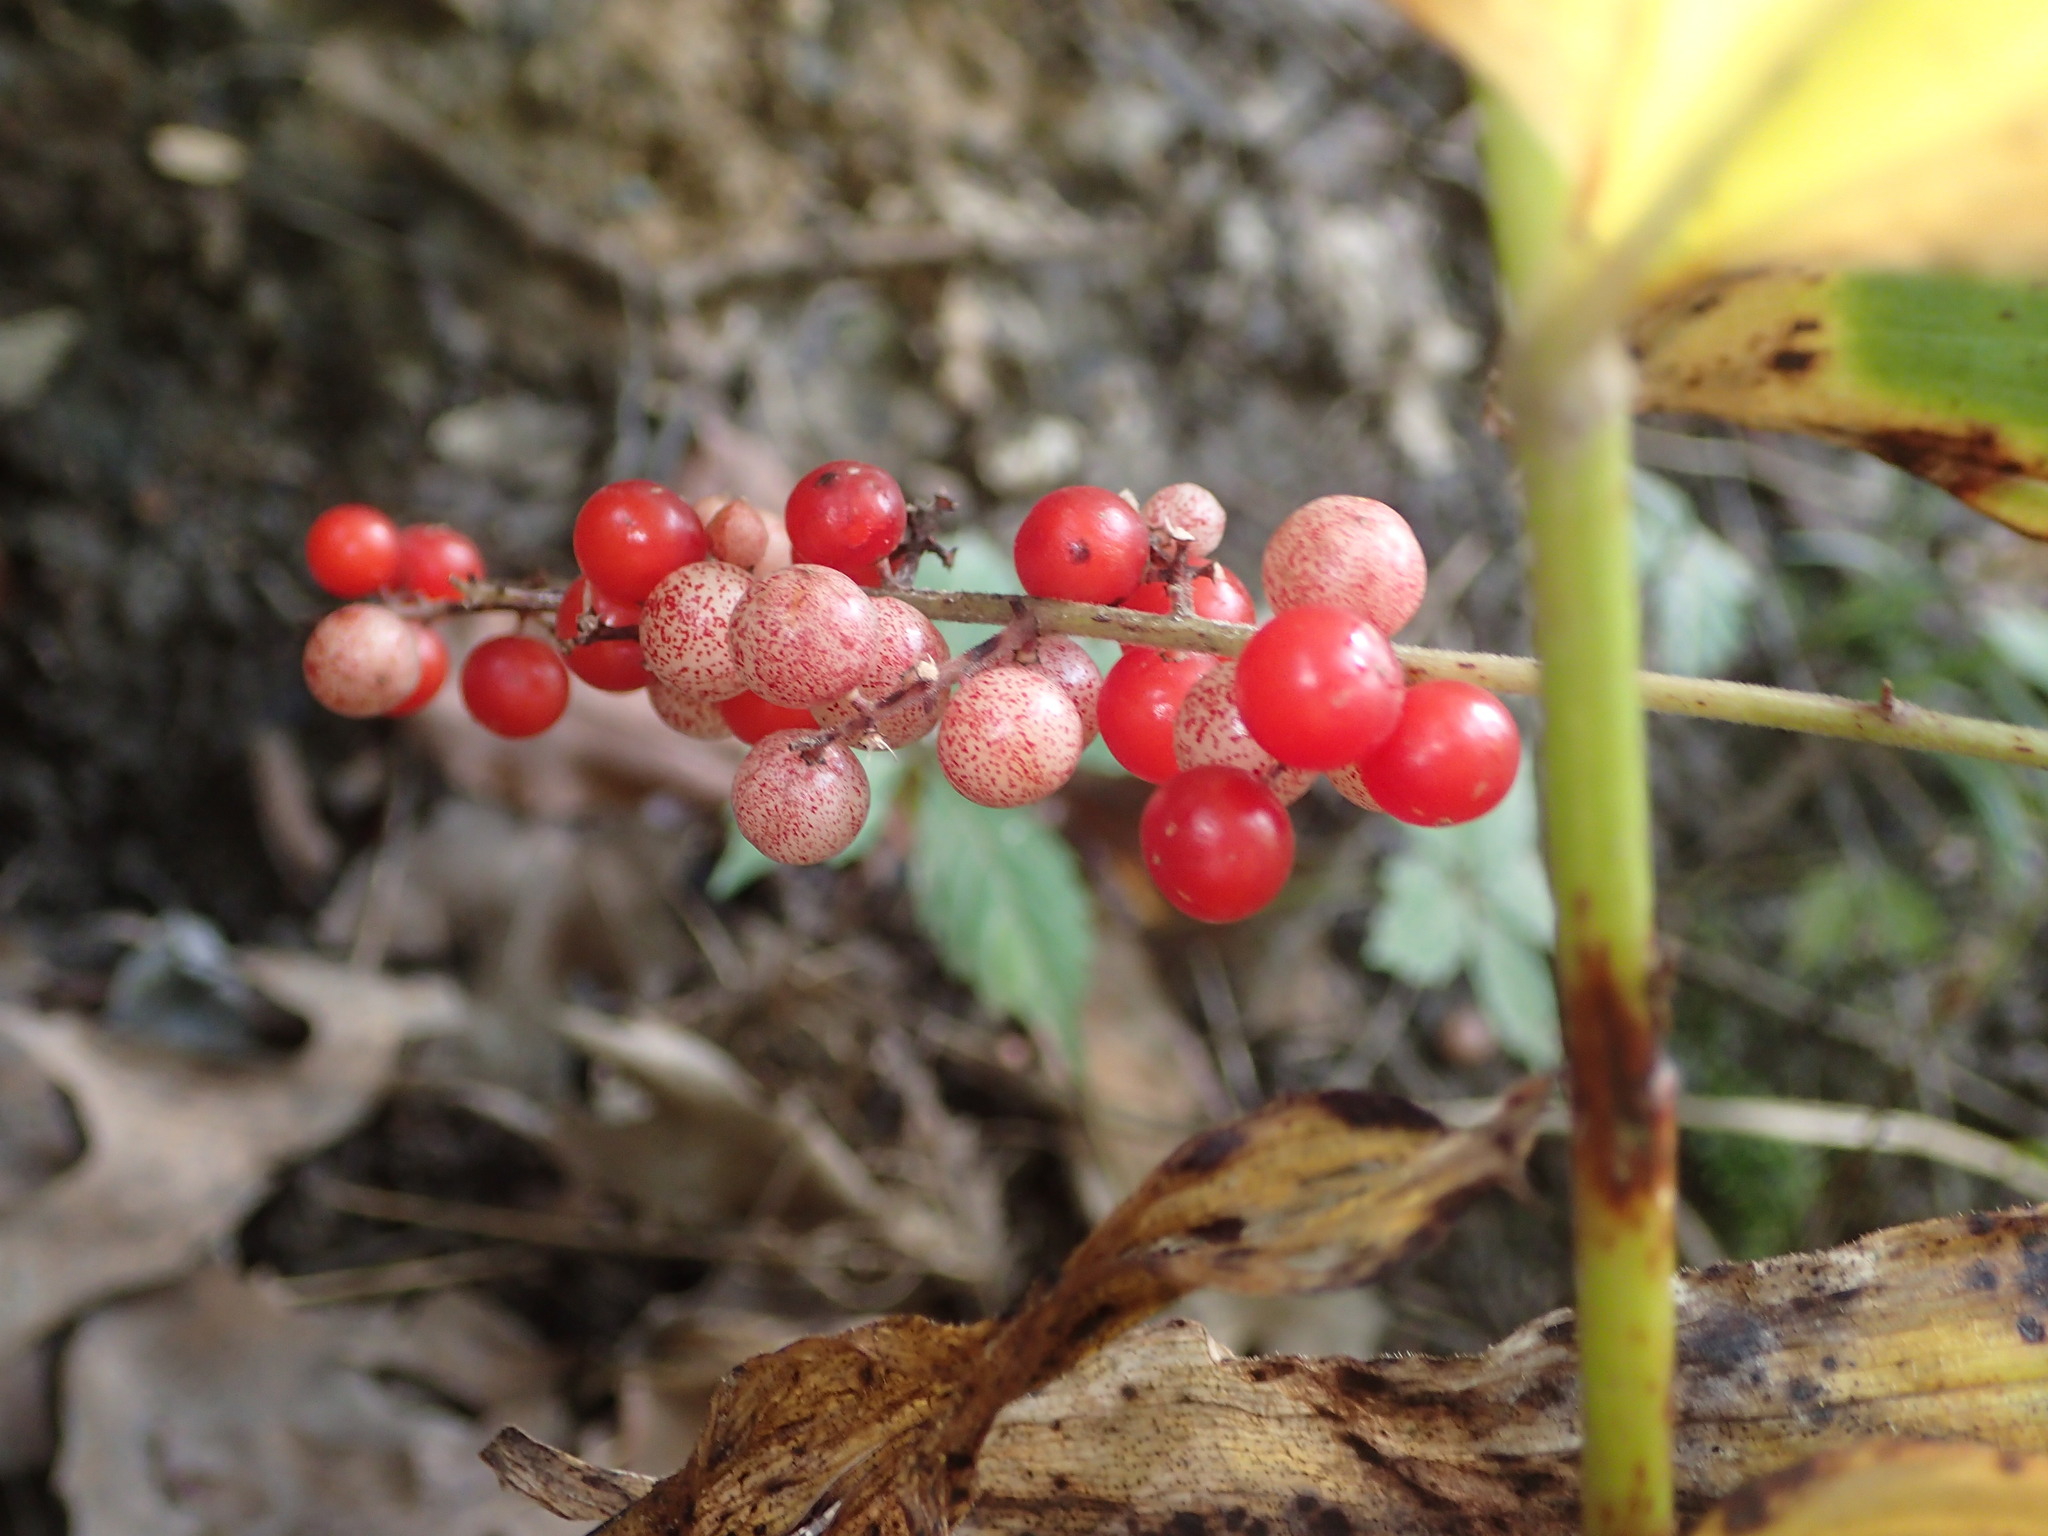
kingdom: Plantae
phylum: Tracheophyta
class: Liliopsida
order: Asparagales
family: Asparagaceae
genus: Maianthemum
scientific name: Maianthemum racemosum
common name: False spikenard
